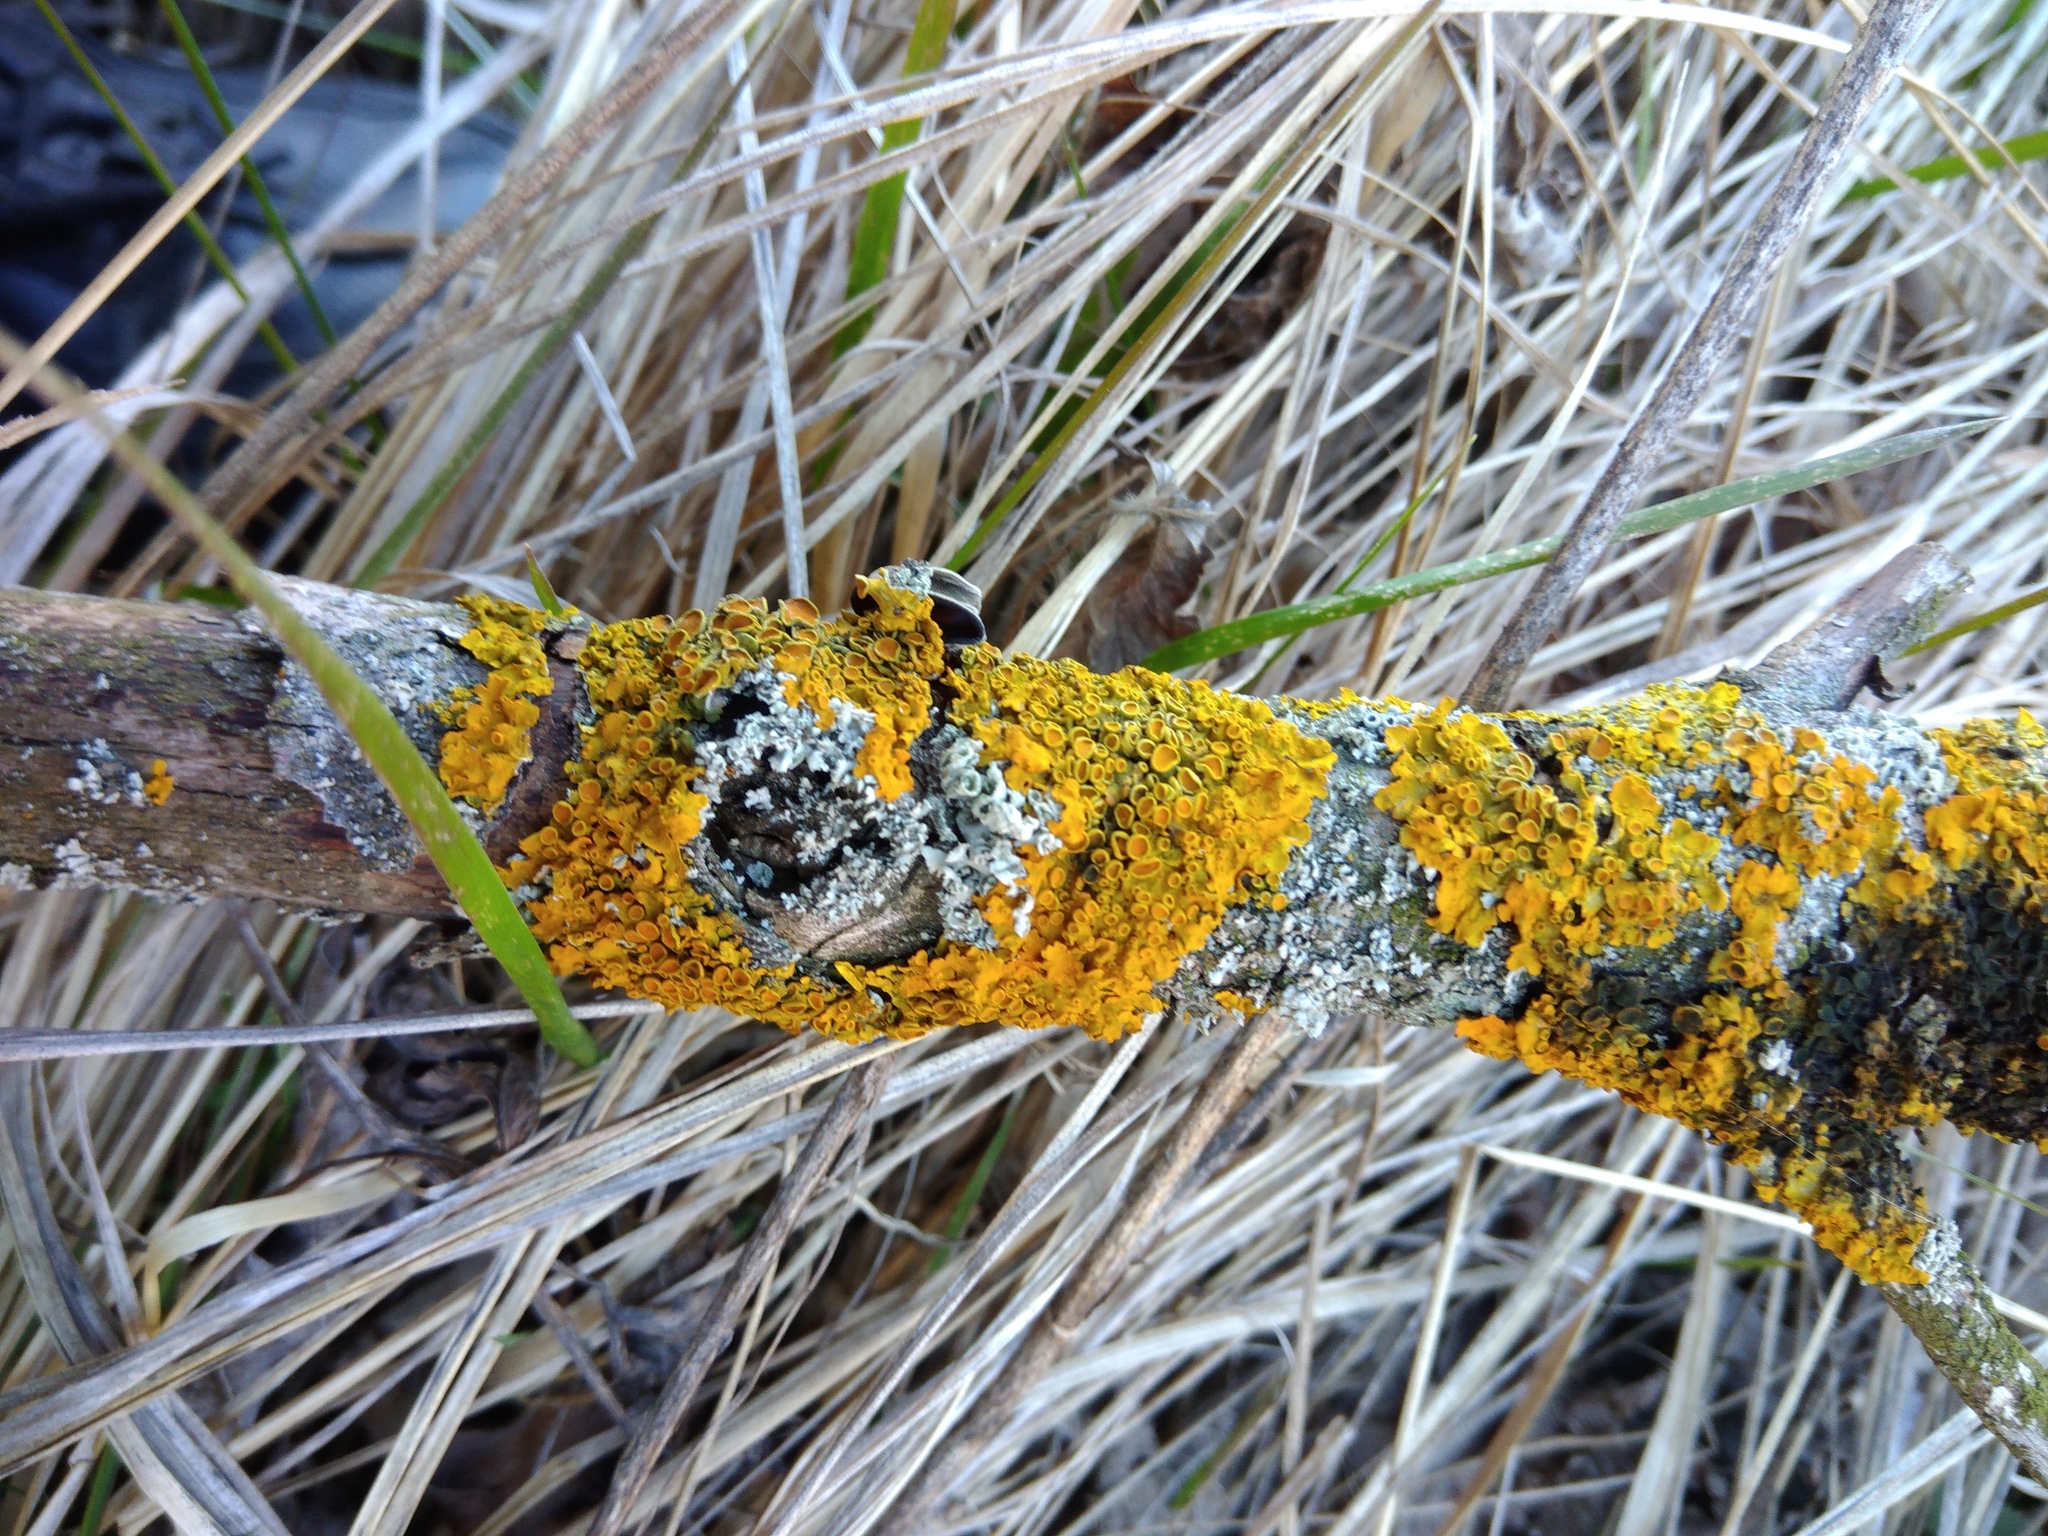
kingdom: Fungi
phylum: Ascomycota
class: Lecanoromycetes
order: Teloschistales
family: Teloschistaceae
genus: Xanthoria
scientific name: Xanthoria parietina
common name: Common orange lichen
